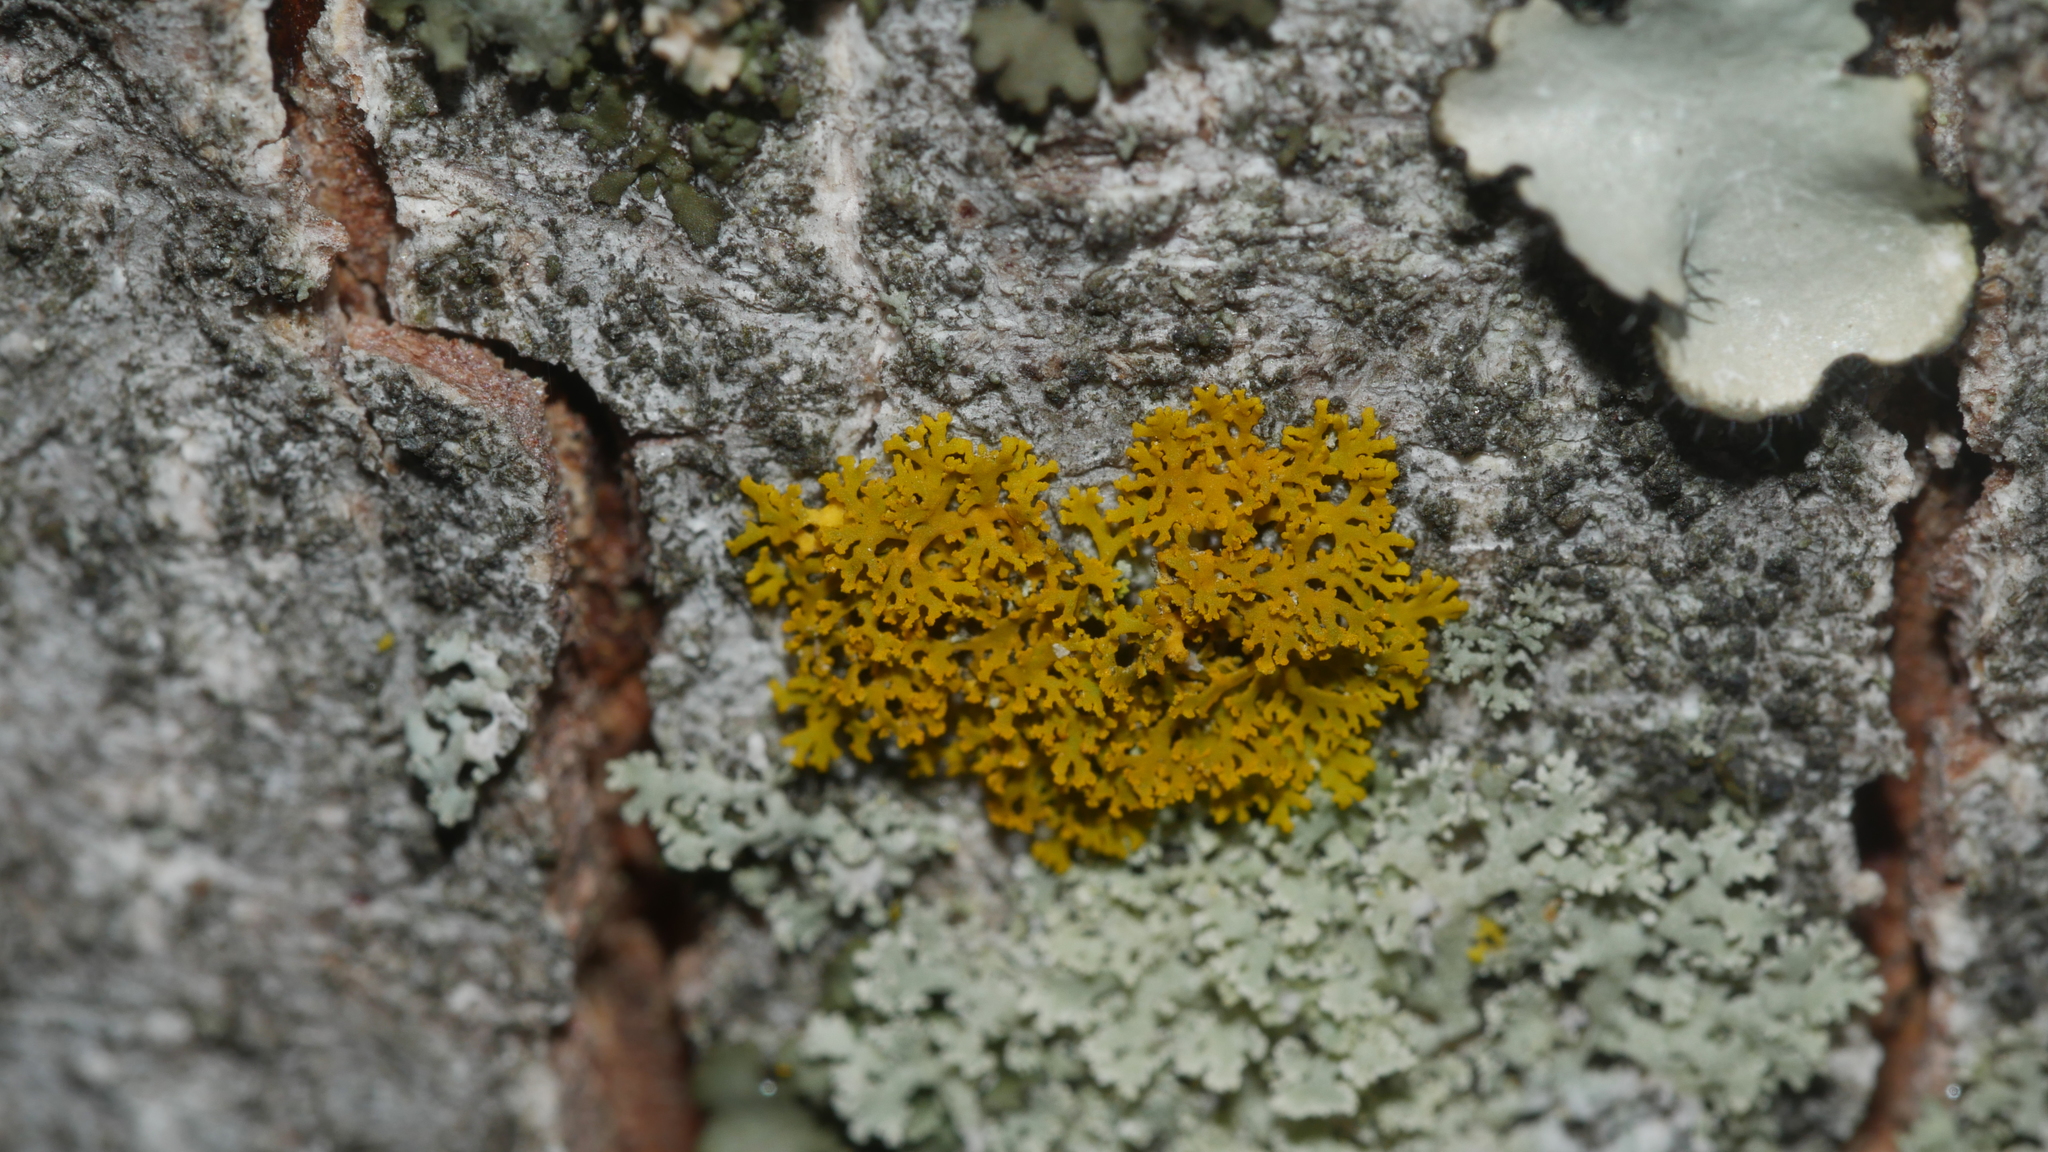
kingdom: Fungi
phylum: Ascomycota
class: Candelariomycetes
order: Candelariales
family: Candelariaceae
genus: Candelaria
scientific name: Candelaria concolor
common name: Candleflame lichen
